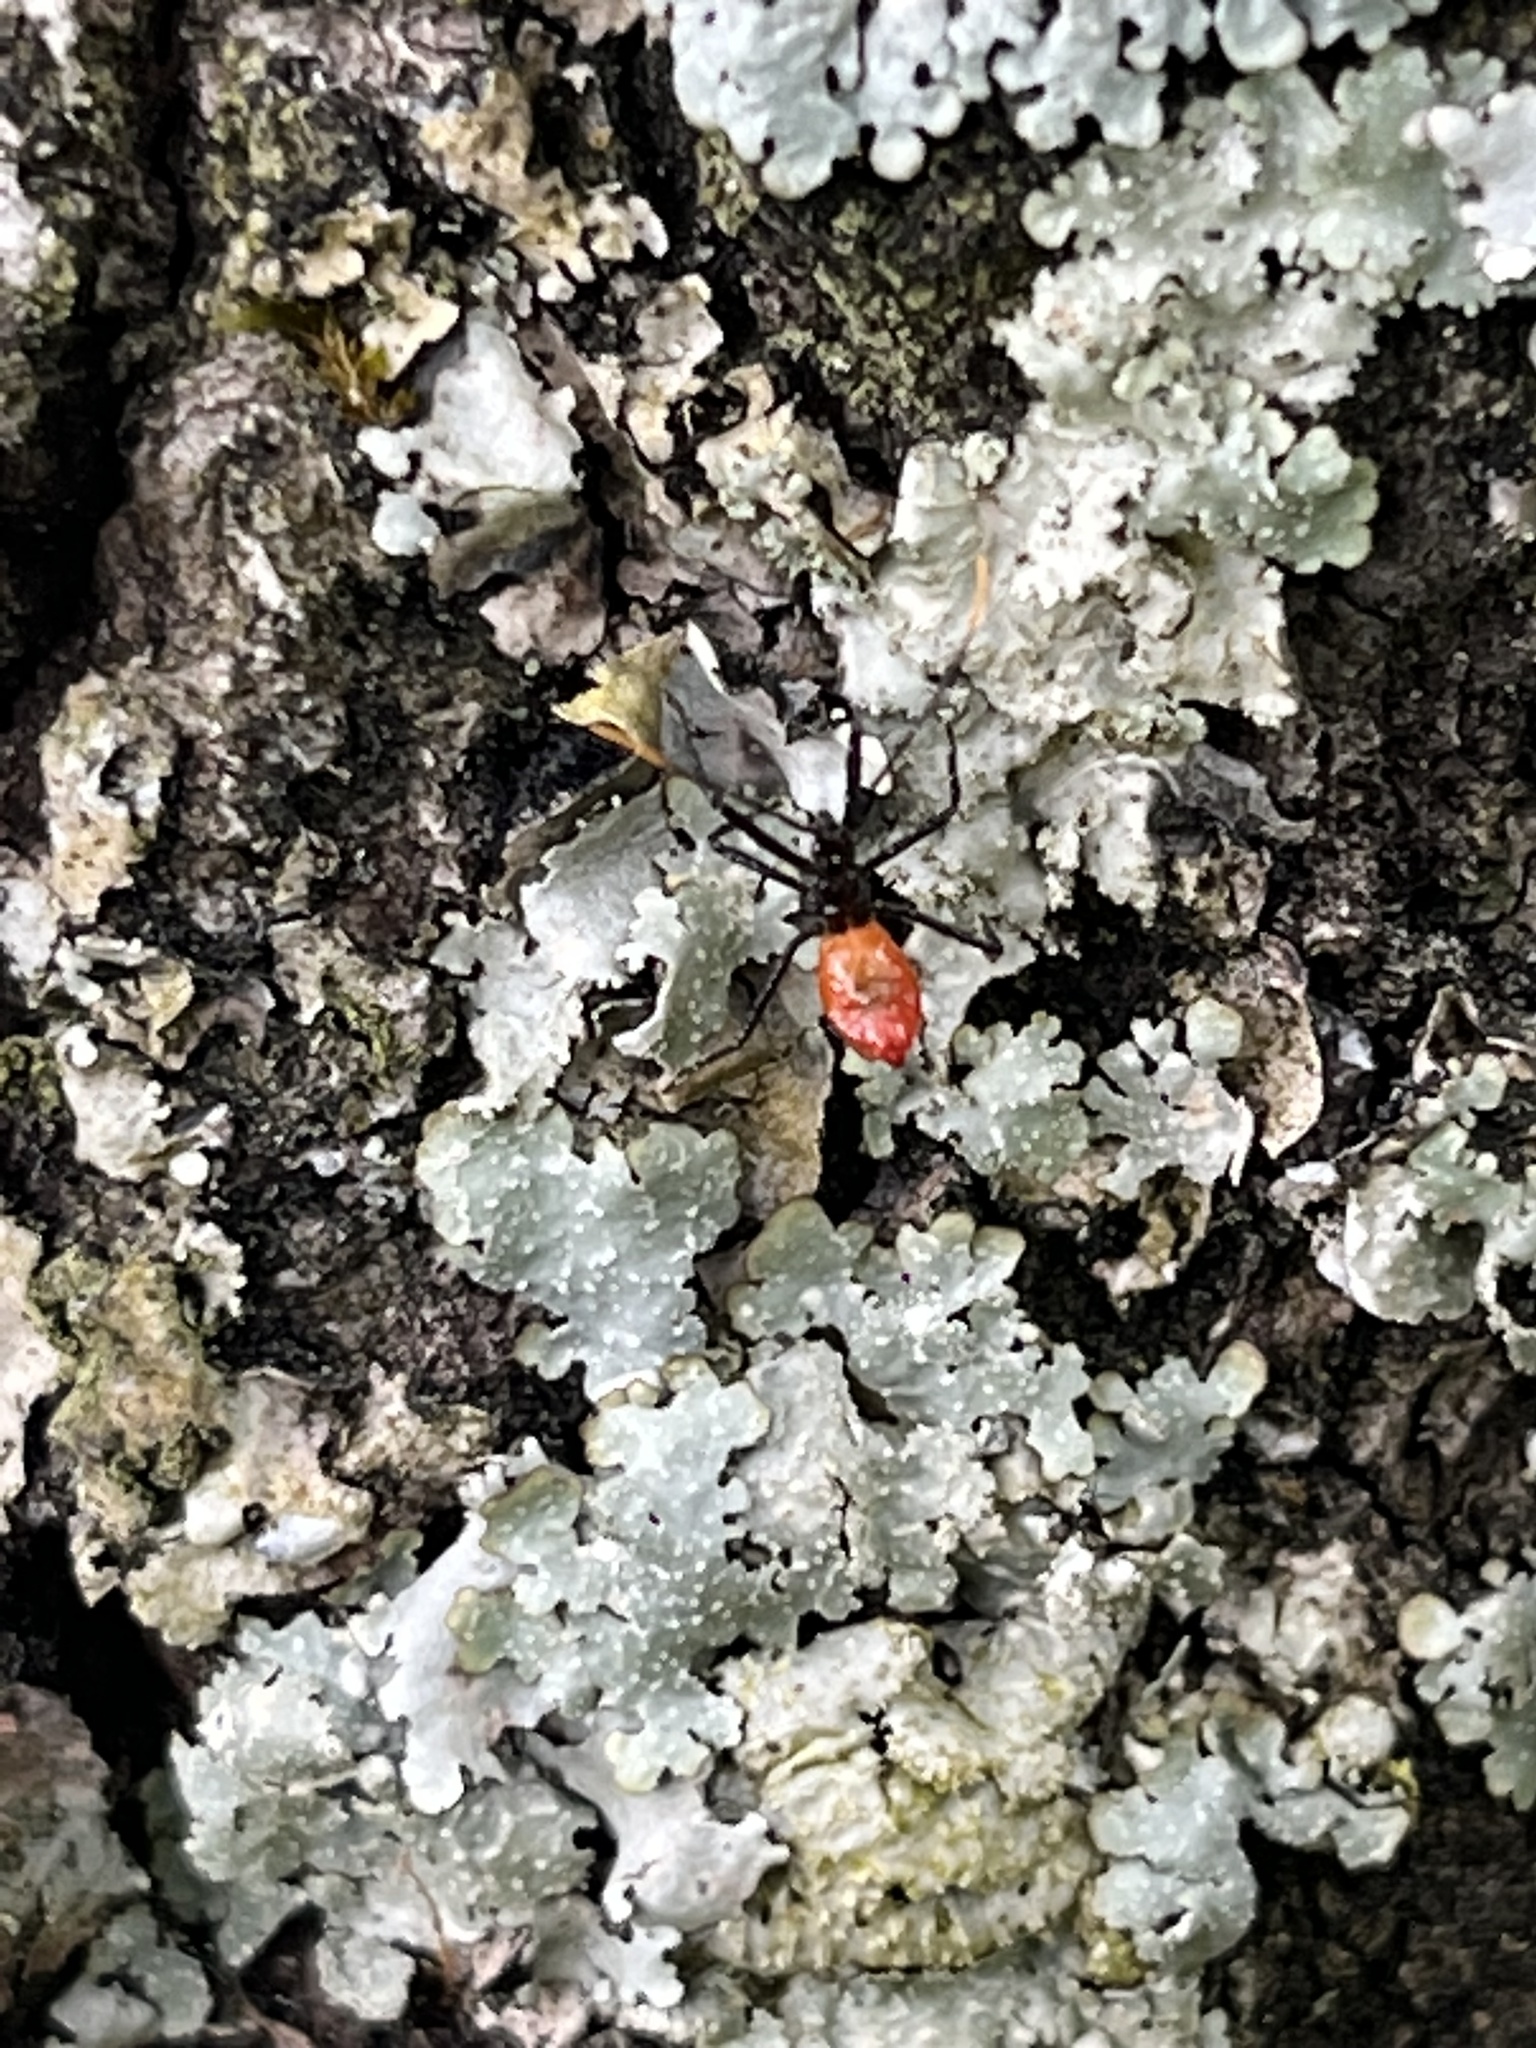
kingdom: Animalia
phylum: Arthropoda
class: Insecta
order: Hemiptera
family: Reduviidae
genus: Arilus
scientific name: Arilus cristatus
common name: North american wheel bug
